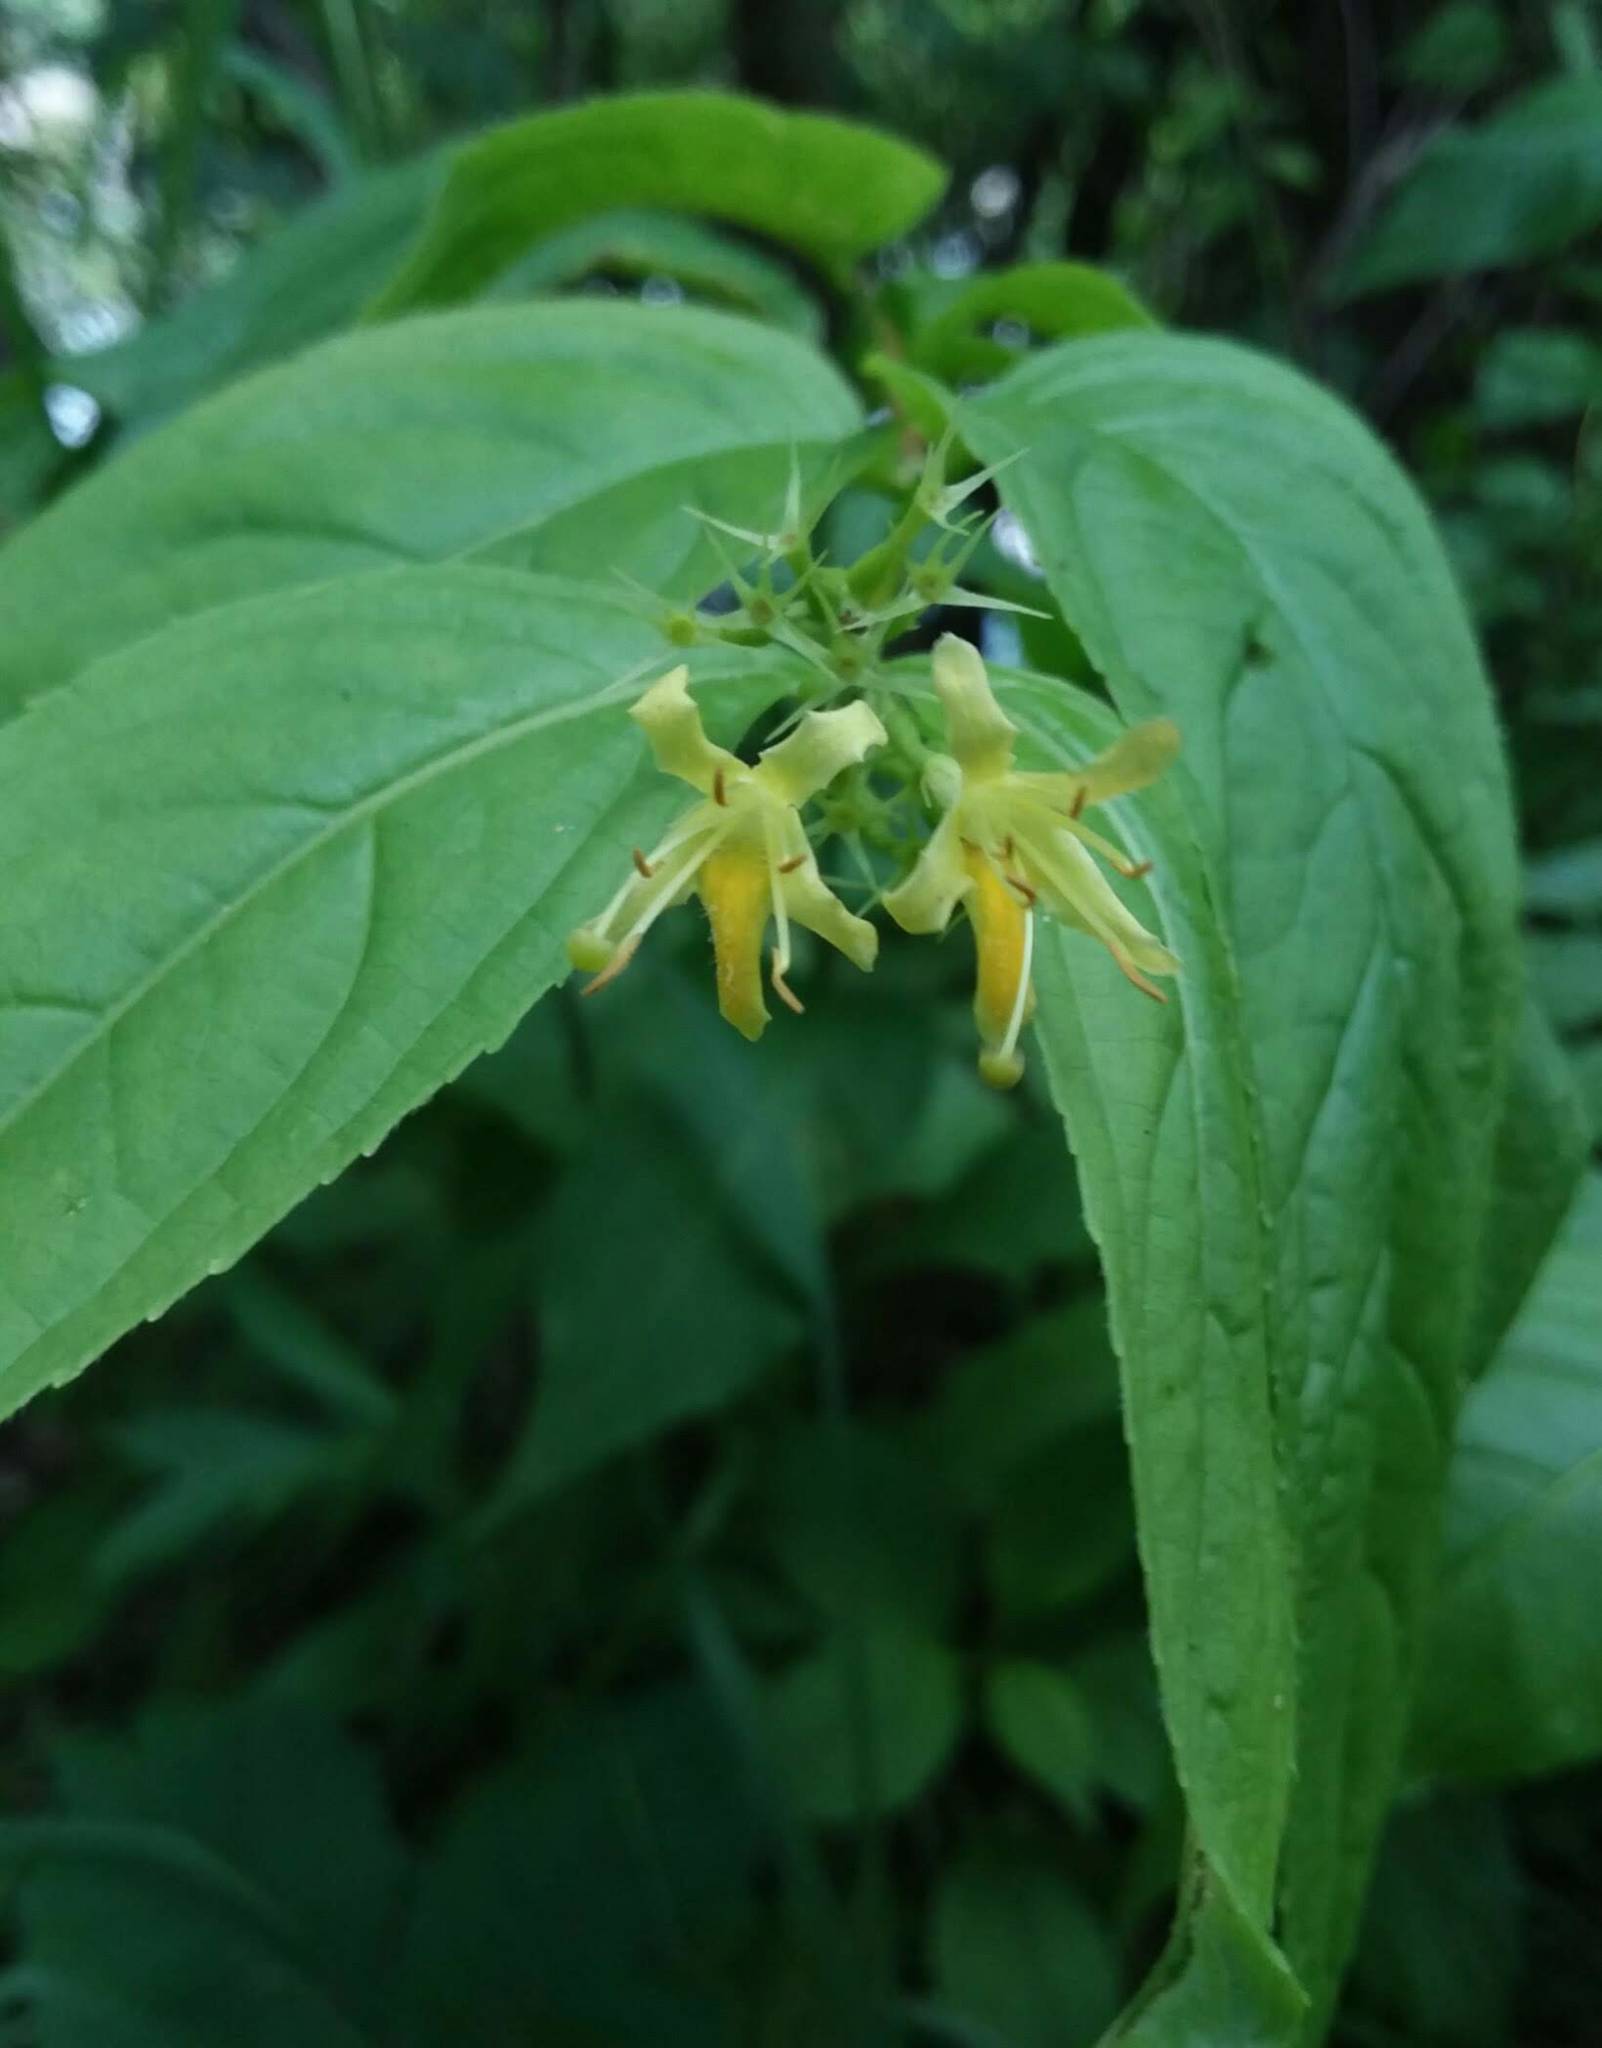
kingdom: Plantae
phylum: Tracheophyta
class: Magnoliopsida
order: Dipsacales
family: Caprifoliaceae
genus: Diervilla
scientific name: Diervilla lonicera
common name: Bush-honeysuckle
